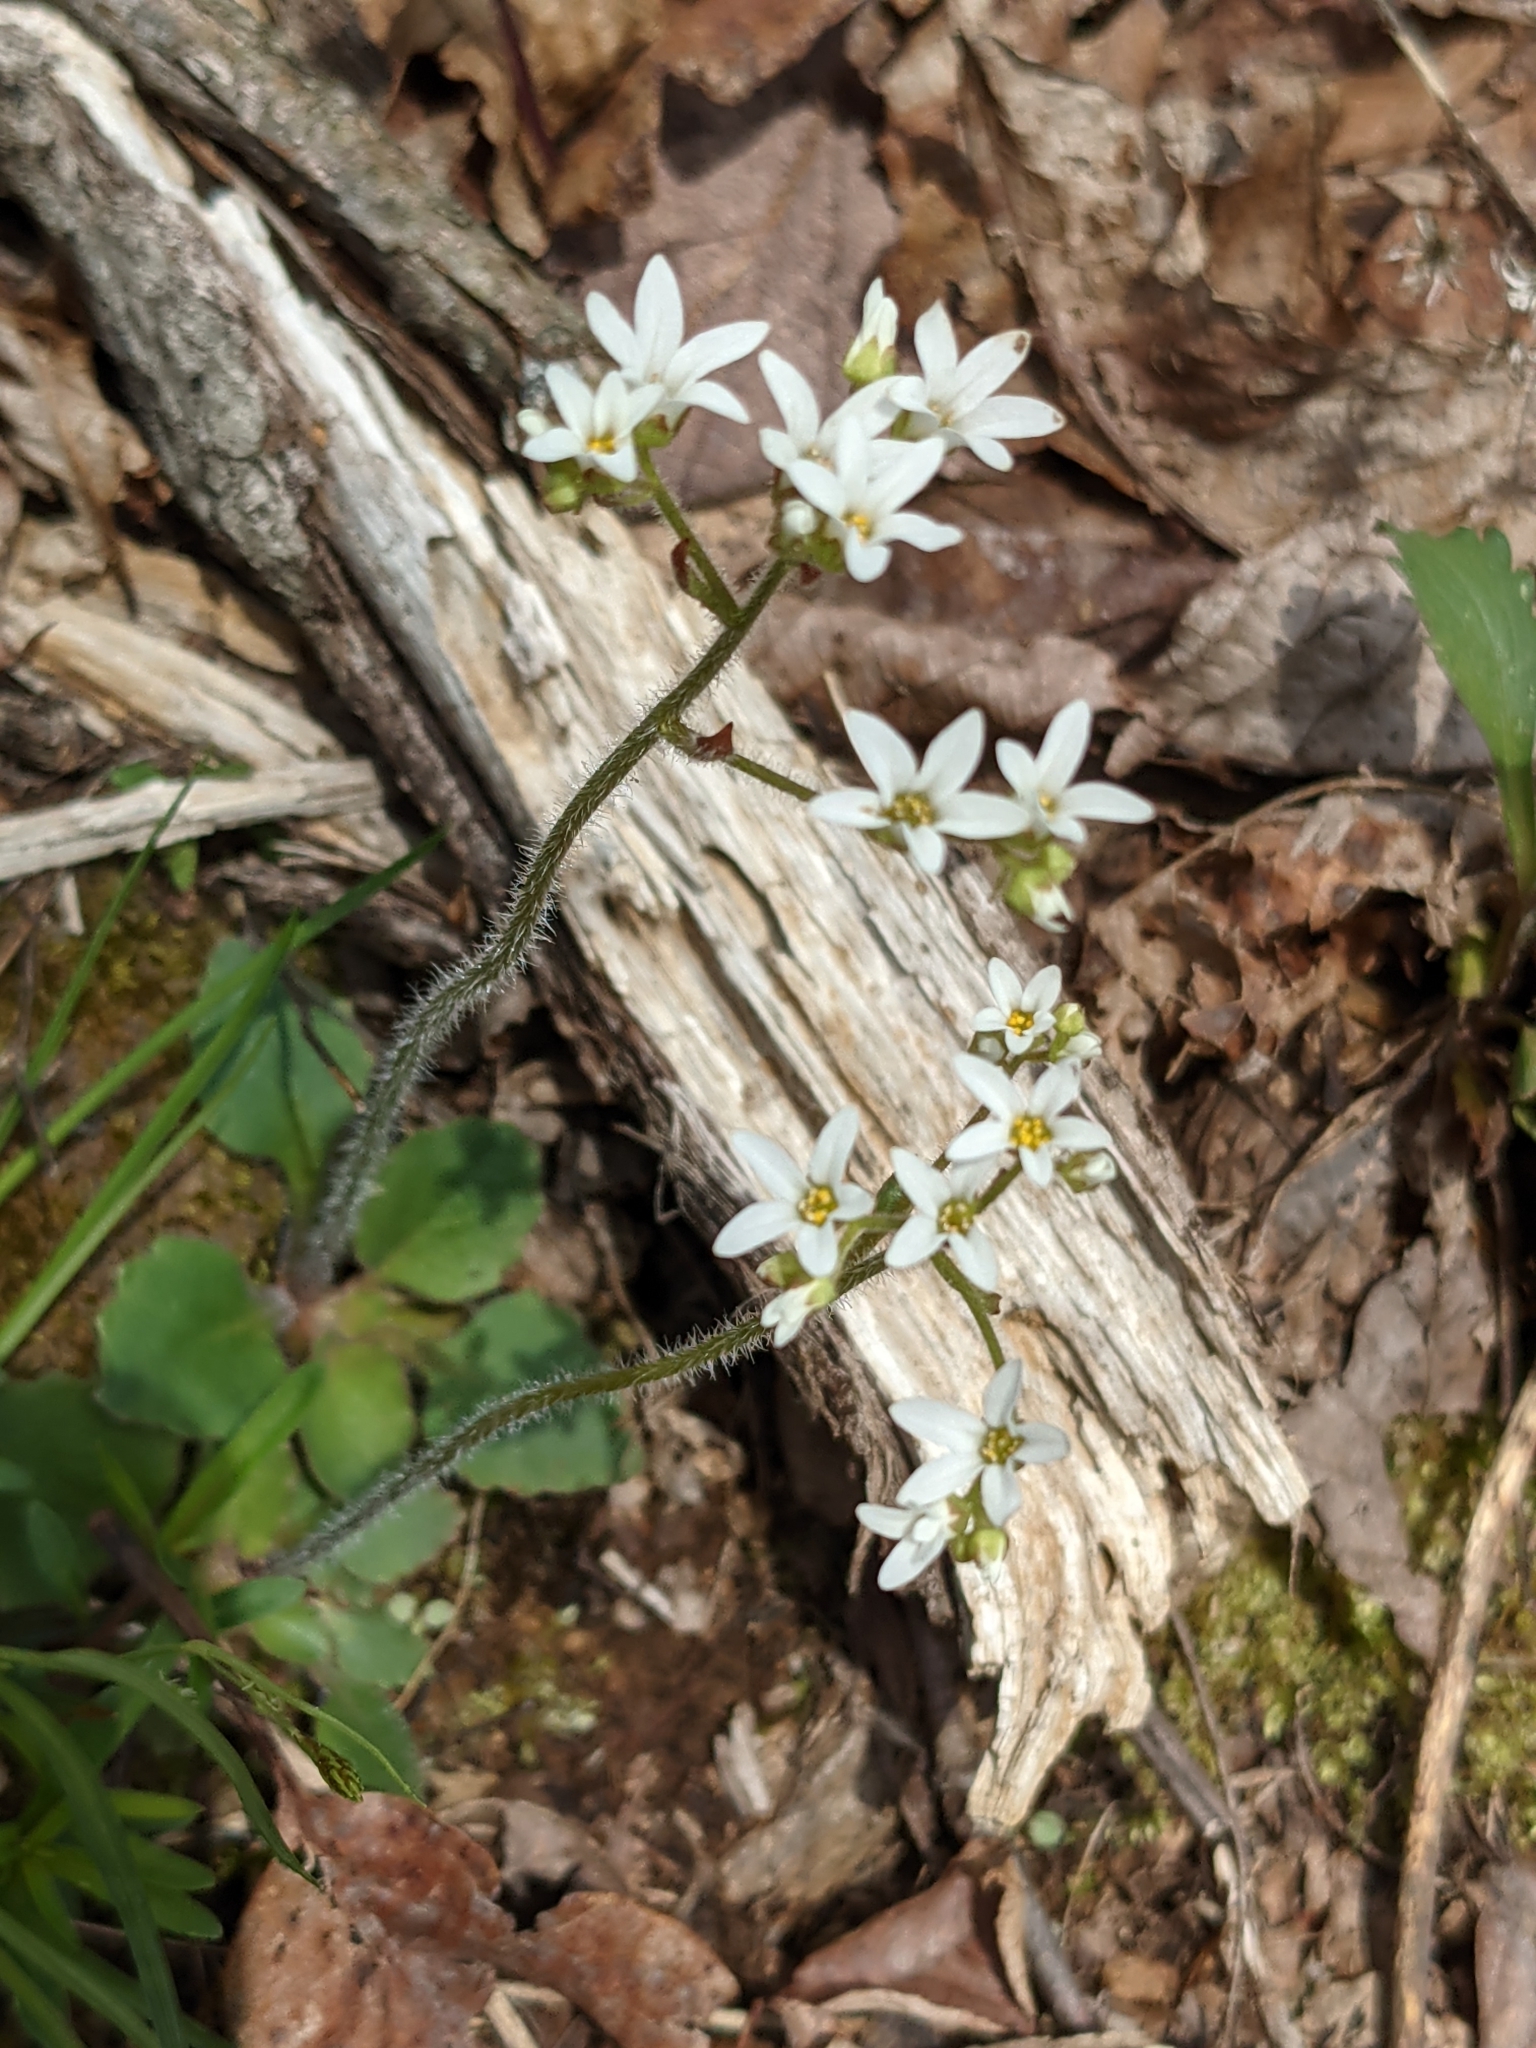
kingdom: Plantae
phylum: Tracheophyta
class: Magnoliopsida
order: Saxifragales
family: Saxifragaceae
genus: Micranthes
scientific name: Micranthes virginiensis
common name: Early saxifrage
